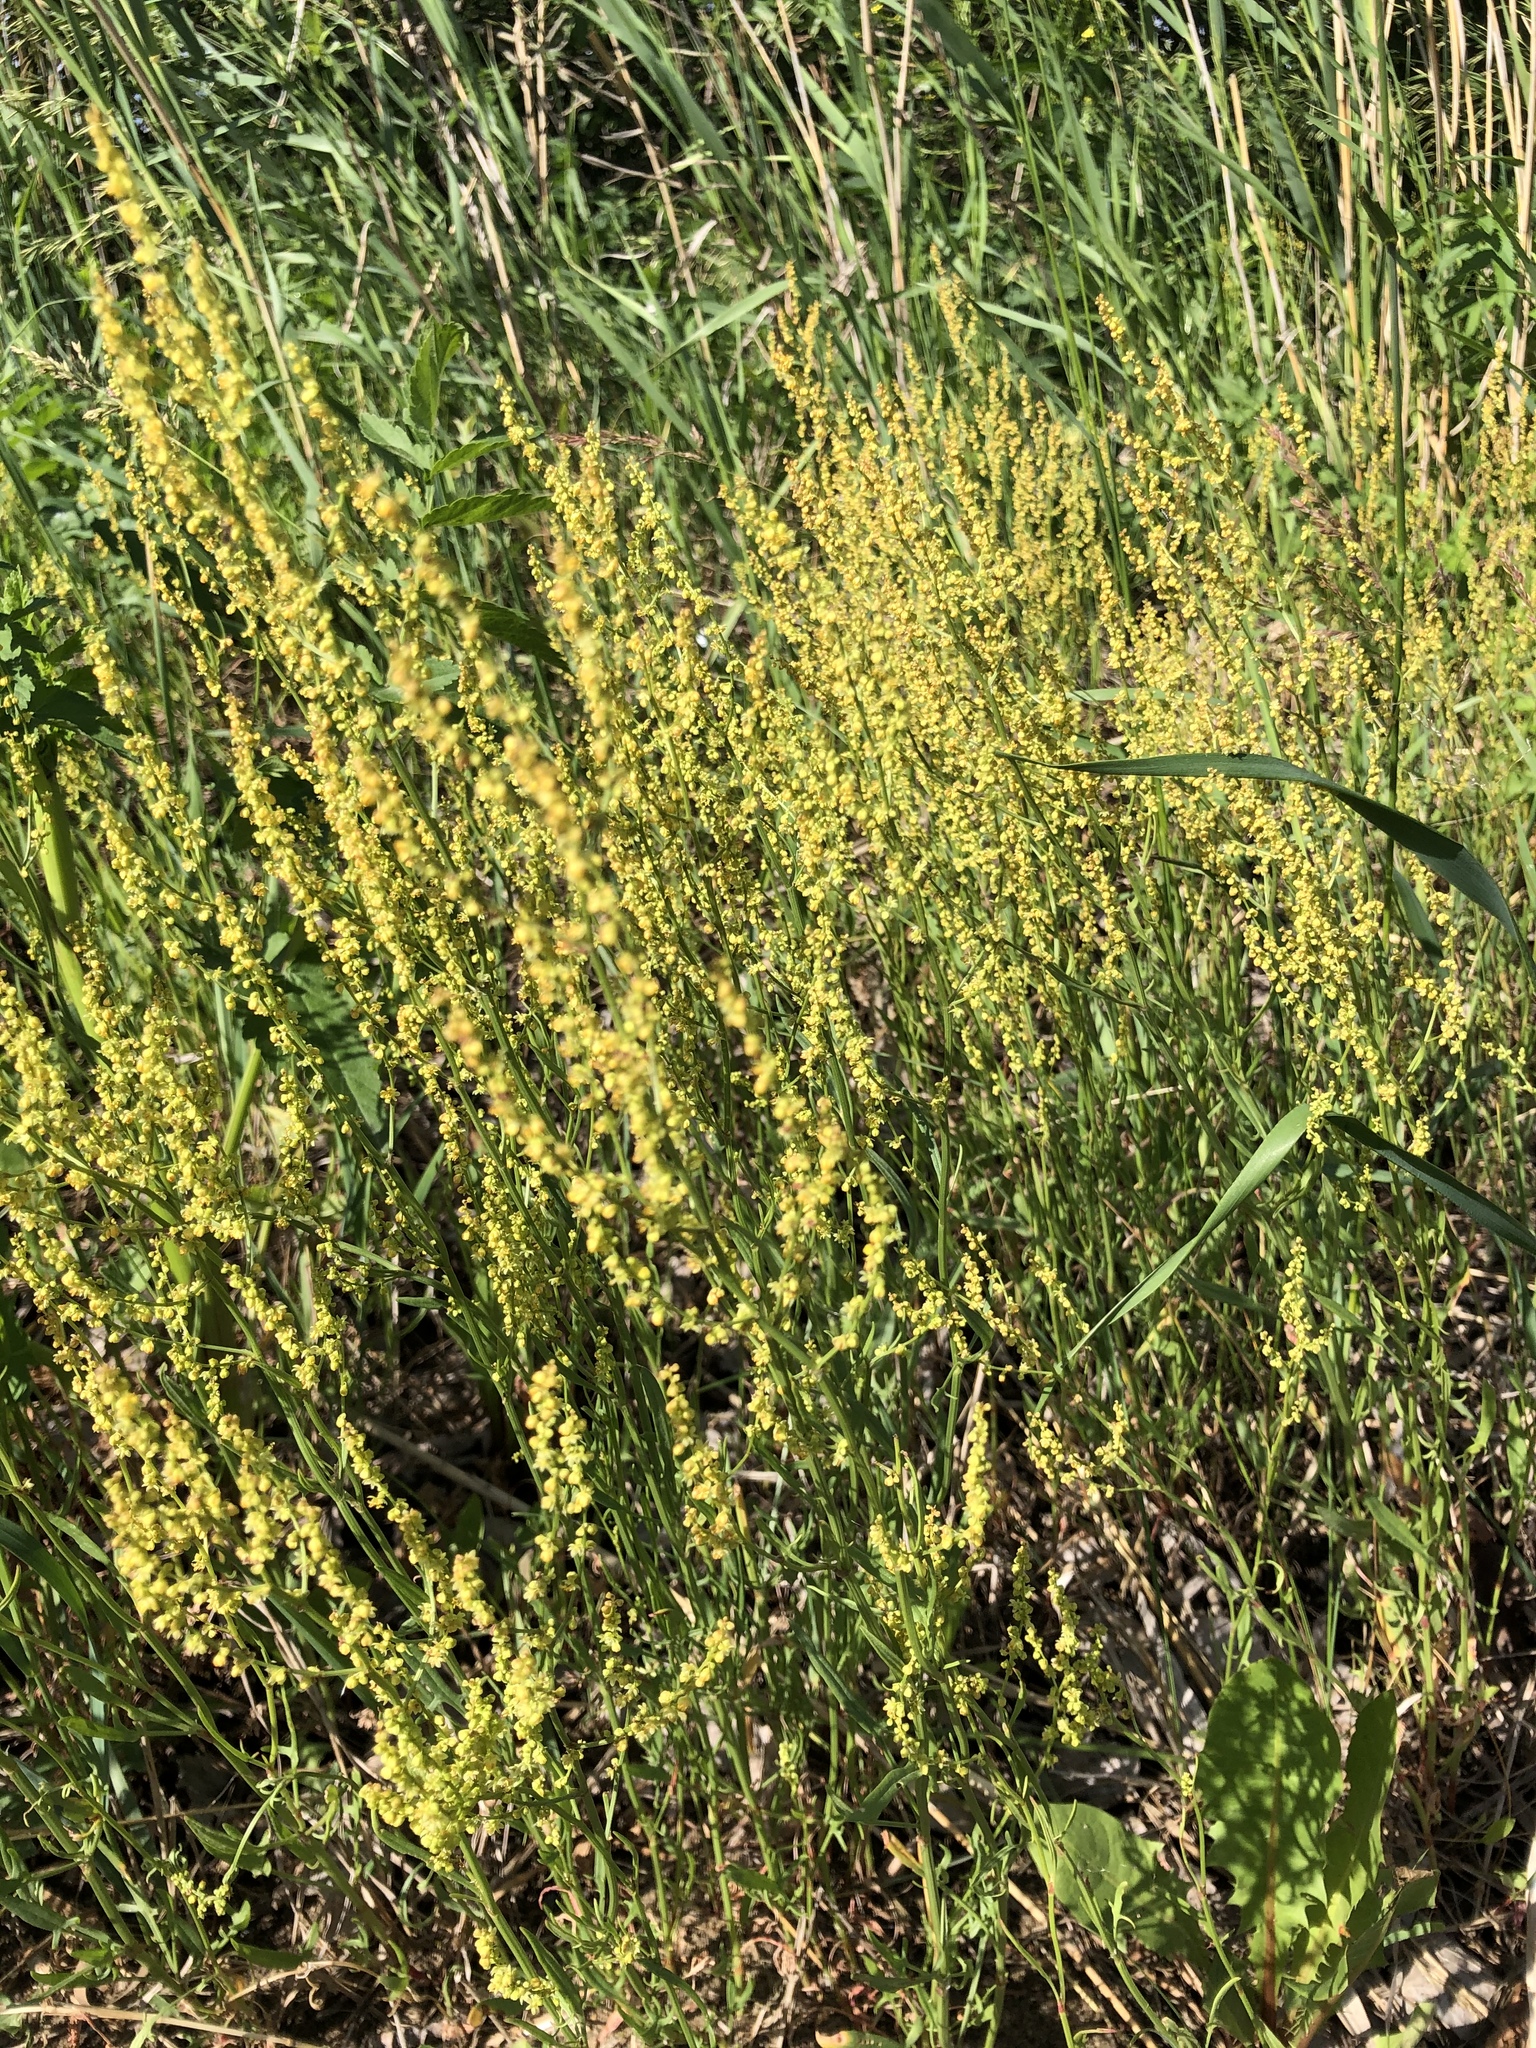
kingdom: Plantae
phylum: Tracheophyta
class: Magnoliopsida
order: Caryophyllales
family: Polygonaceae
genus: Rumex
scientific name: Rumex acetosella
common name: Common sheep sorrel
